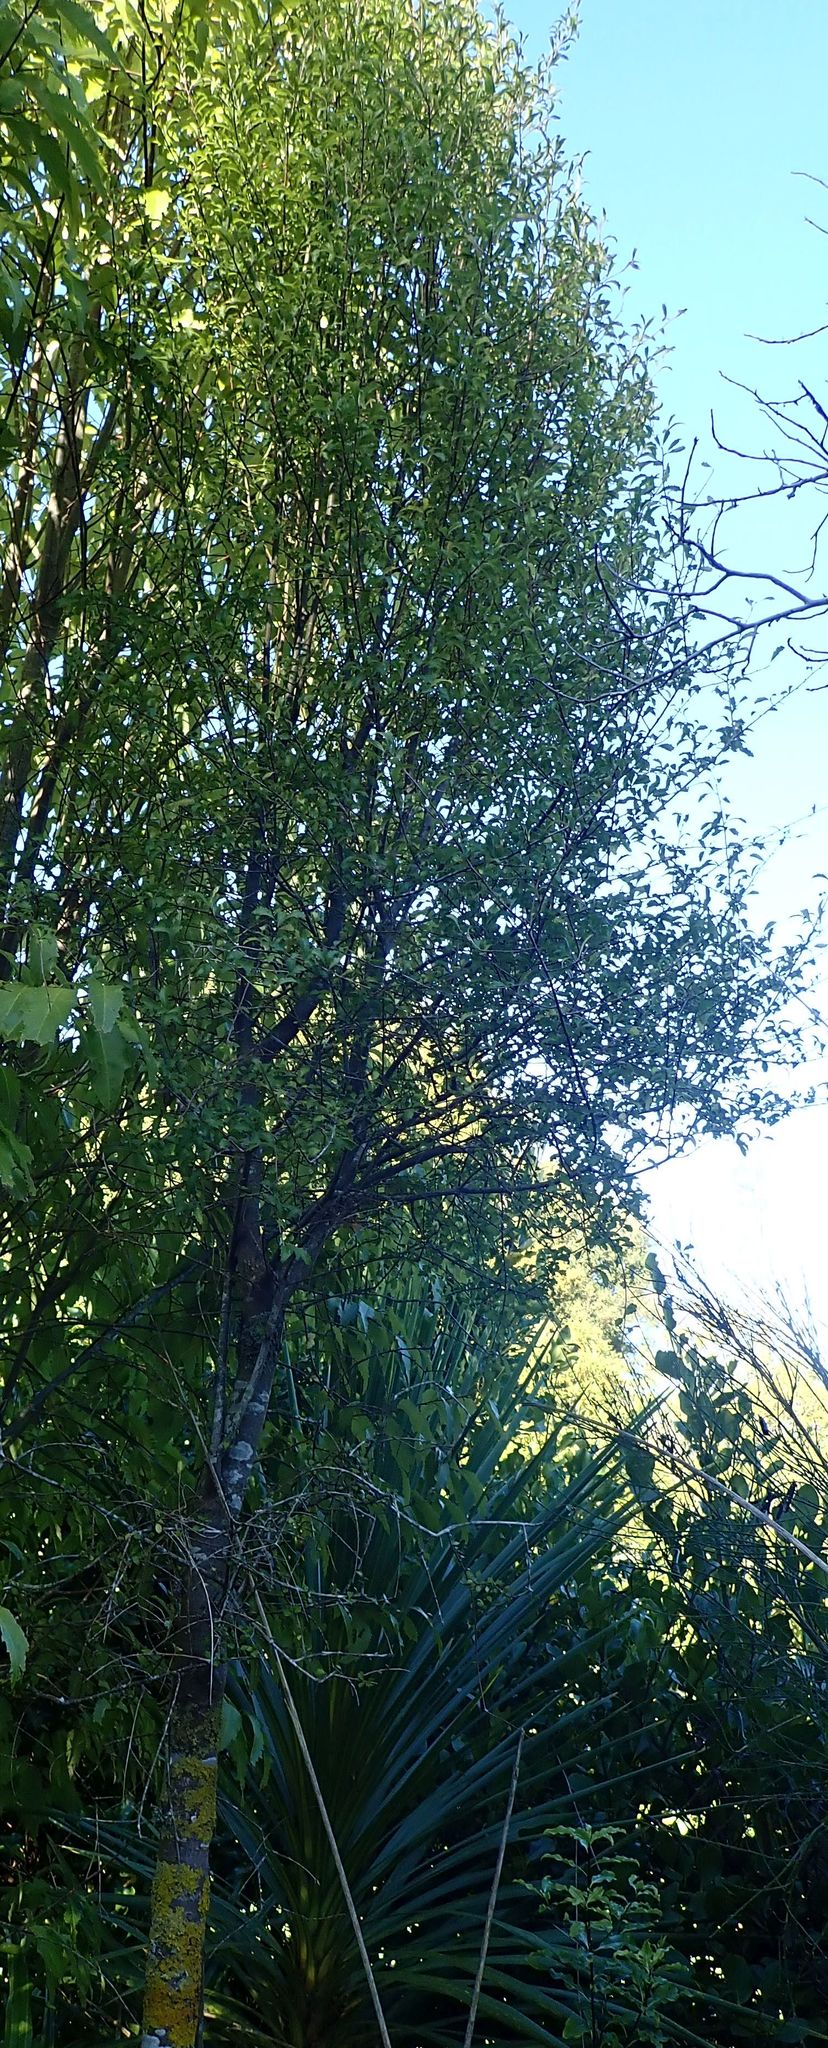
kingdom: Plantae
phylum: Tracheophyta
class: Magnoliopsida
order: Apiales
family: Pennantiaceae
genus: Pennantia
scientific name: Pennantia corymbosa
